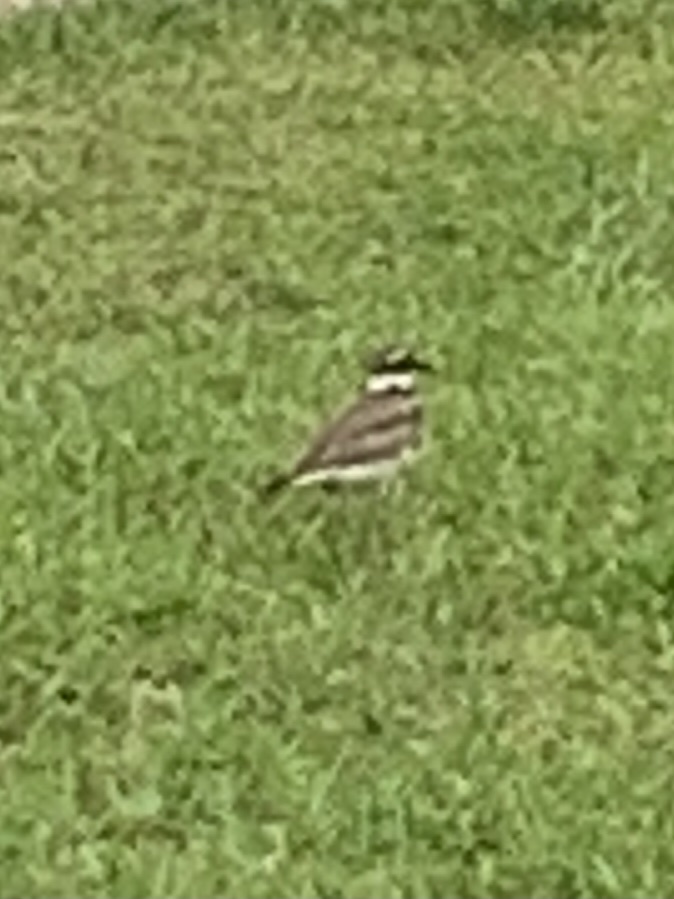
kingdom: Animalia
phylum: Chordata
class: Aves
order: Charadriiformes
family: Charadriidae
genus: Charadrius
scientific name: Charadrius vociferus
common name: Killdeer
